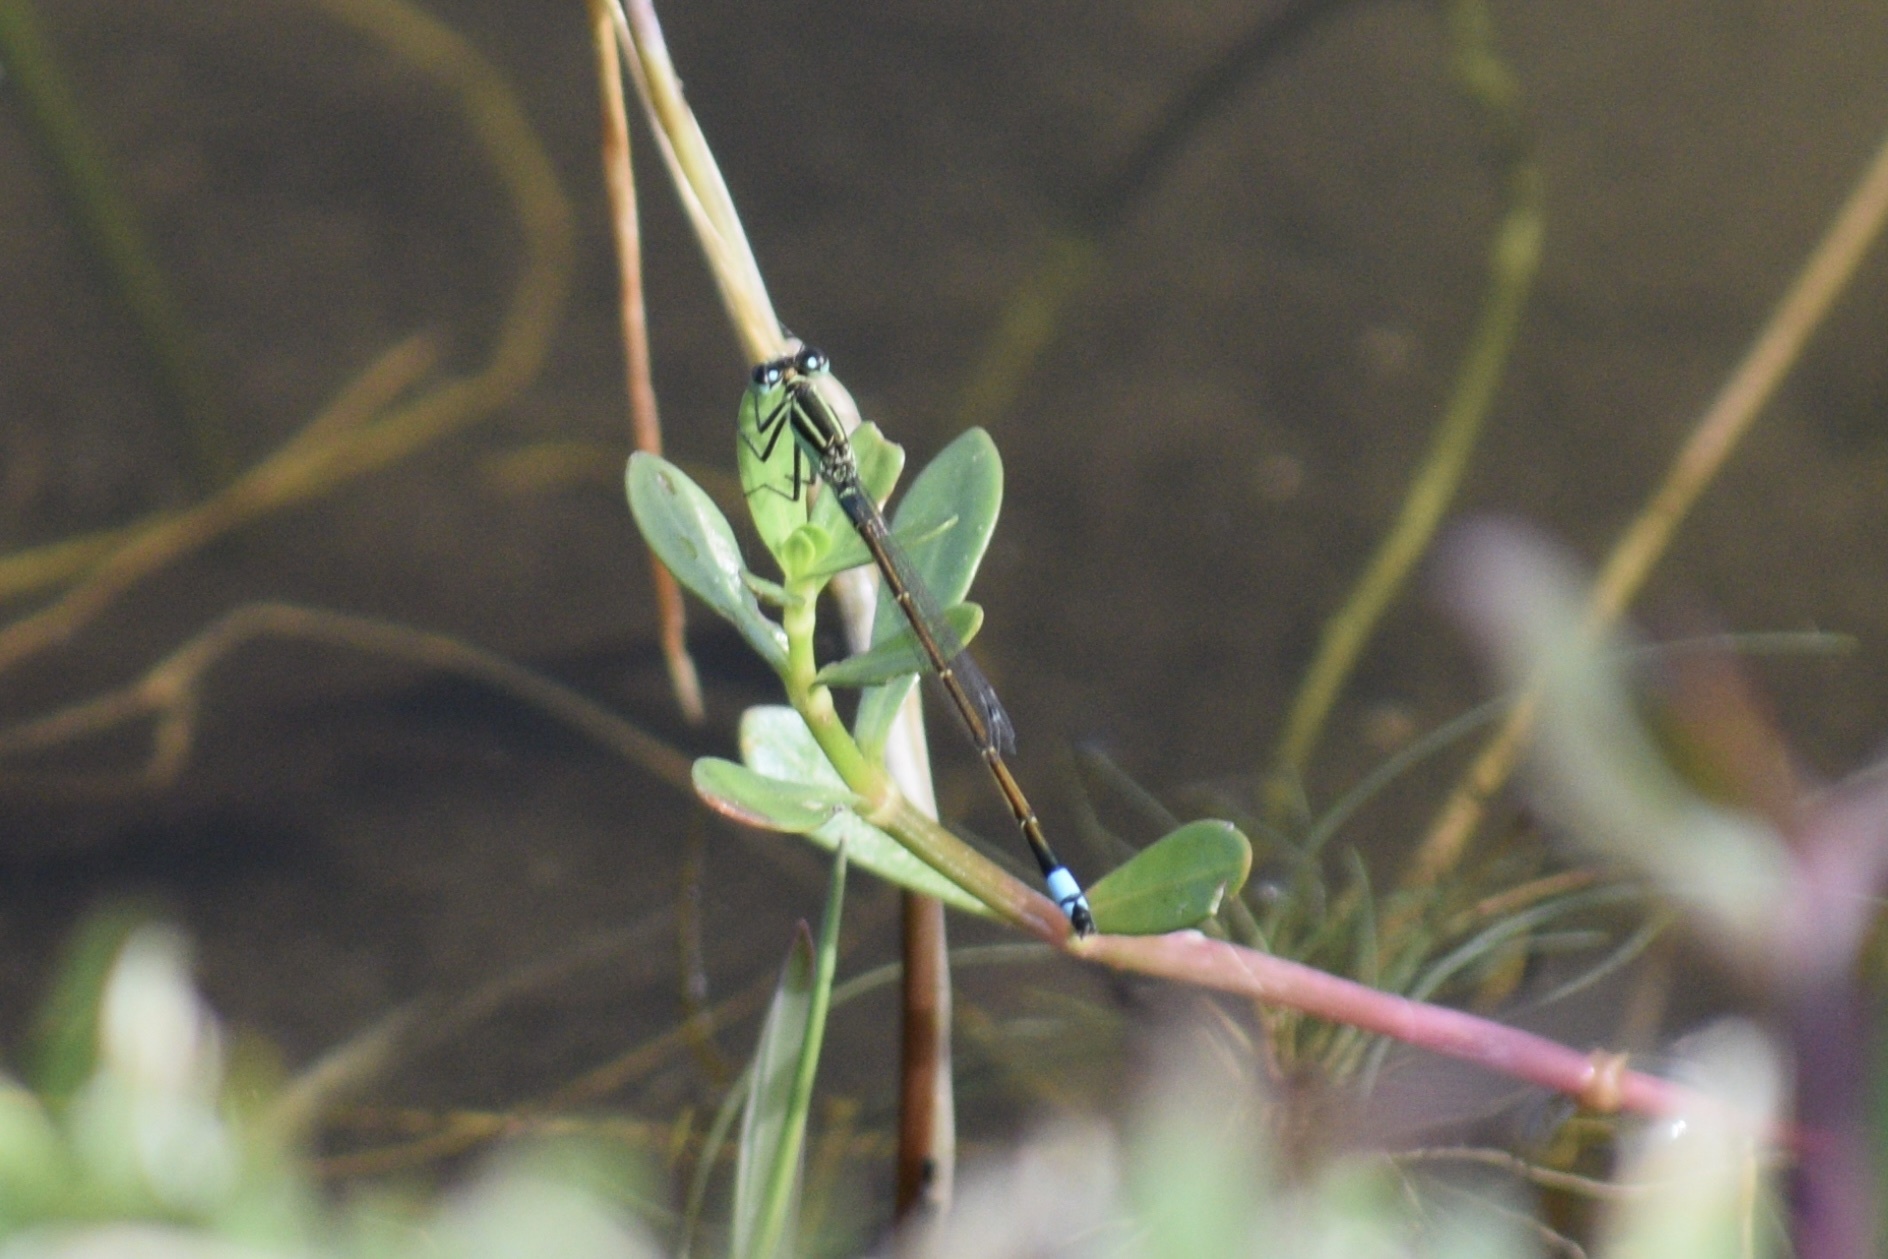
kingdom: Animalia
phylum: Arthropoda
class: Insecta
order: Odonata
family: Coenagrionidae
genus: Ischnura
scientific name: Ischnura ramburii
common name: Rambur's forktail
